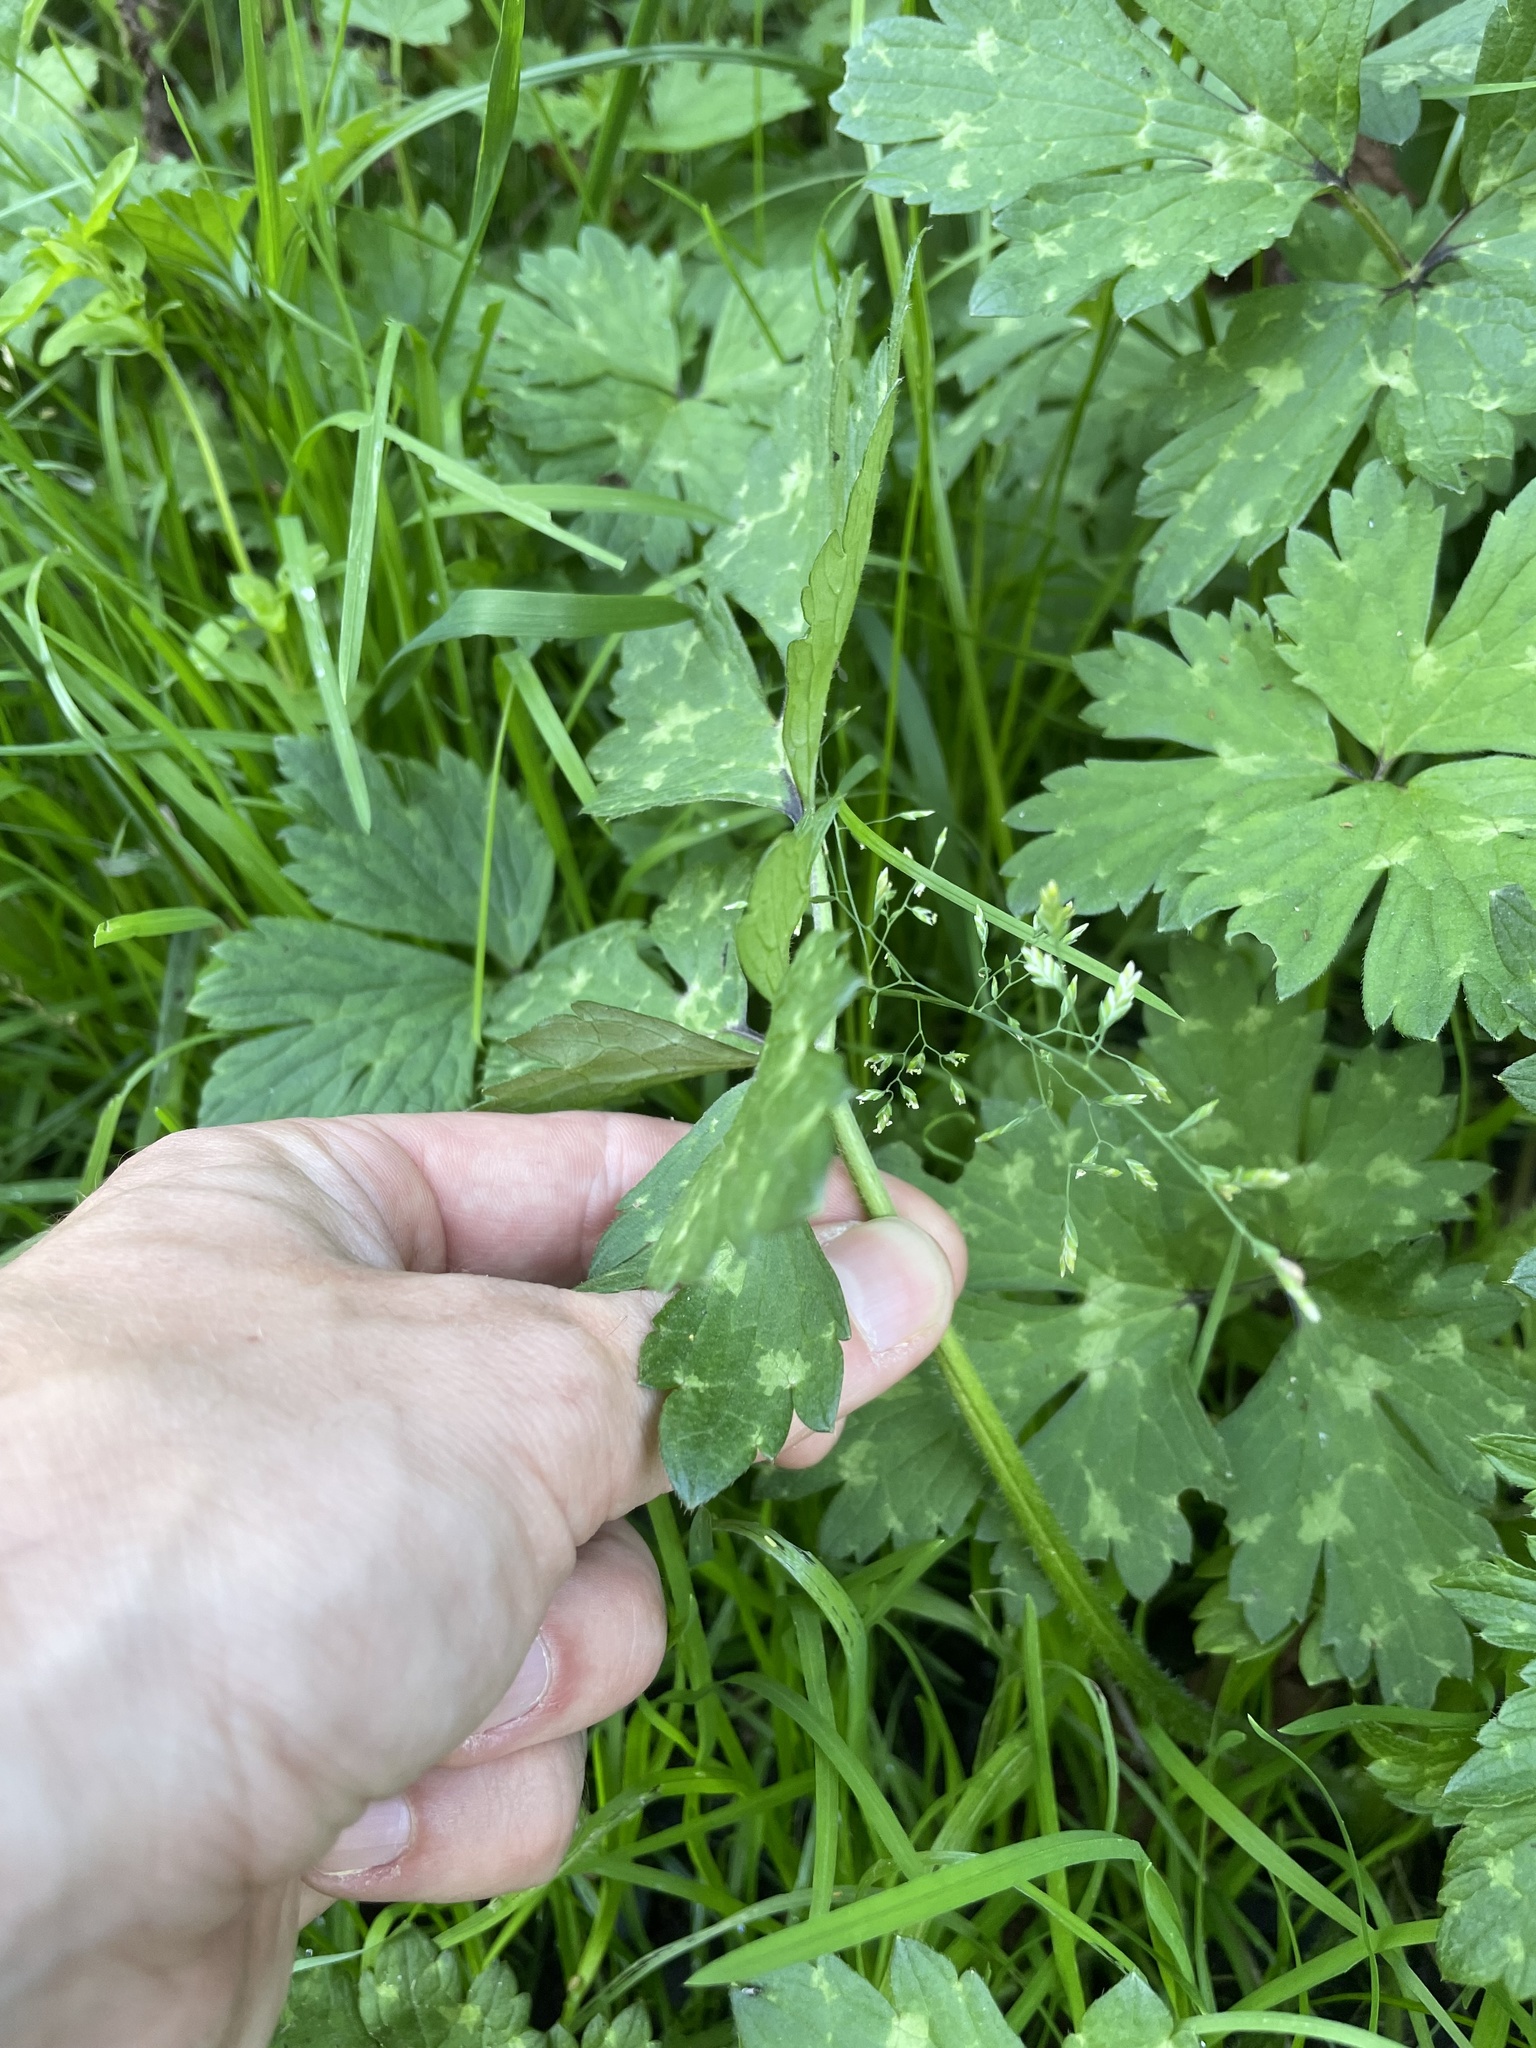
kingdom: Plantae
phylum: Tracheophyta
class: Magnoliopsida
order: Ranunculales
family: Ranunculaceae
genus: Ranunculus
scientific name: Ranunculus repens
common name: Creeping buttercup
